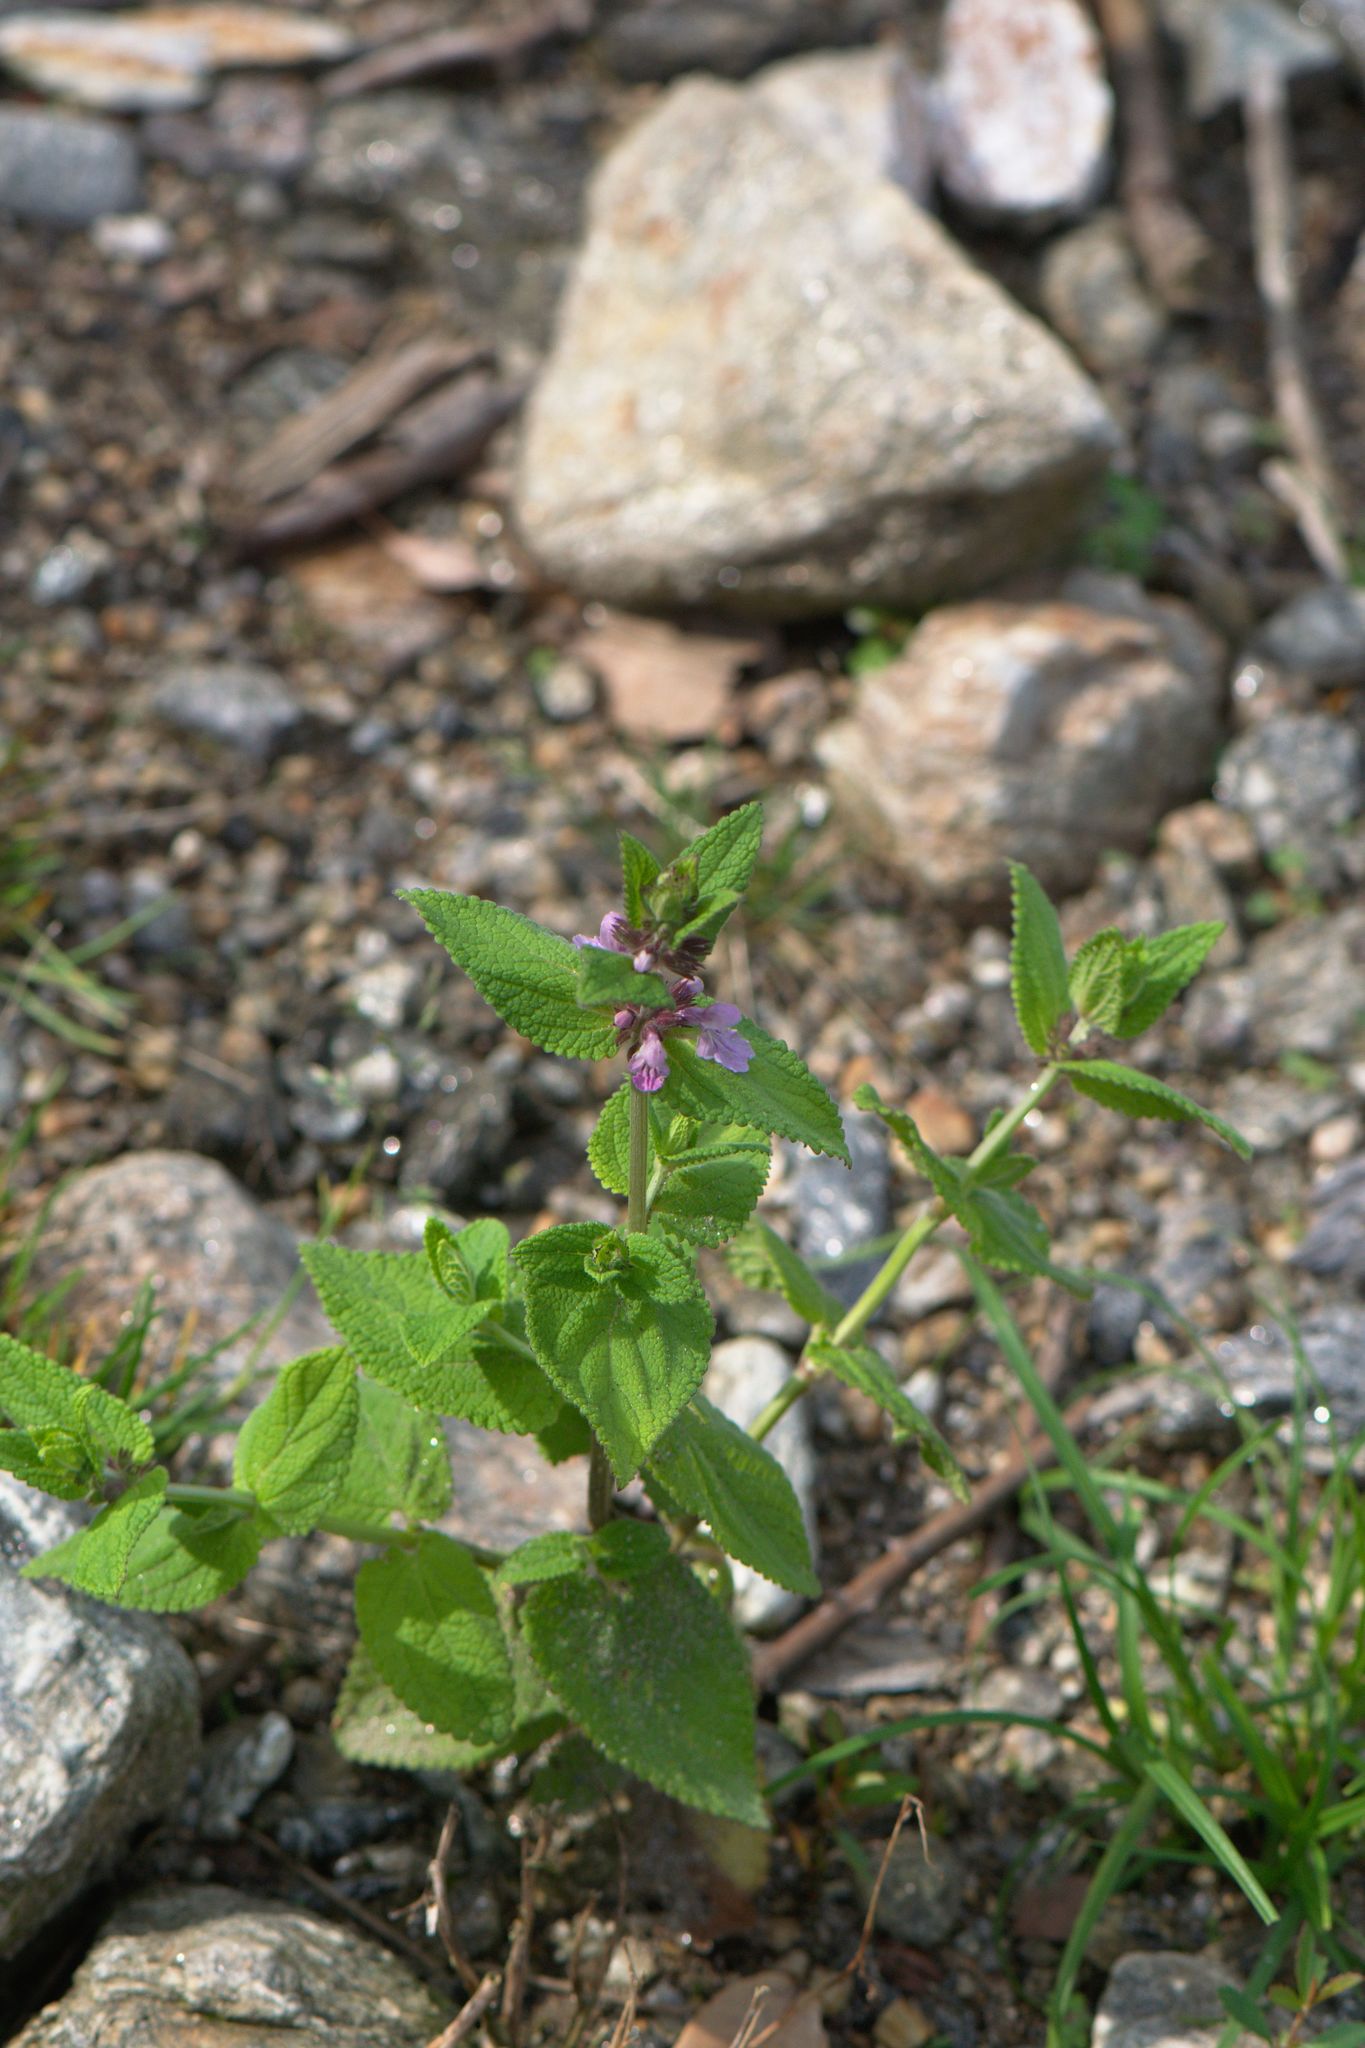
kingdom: Plantae
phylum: Tracheophyta
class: Magnoliopsida
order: Lamiales
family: Lamiaceae
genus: Stachys
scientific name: Stachys splendens
